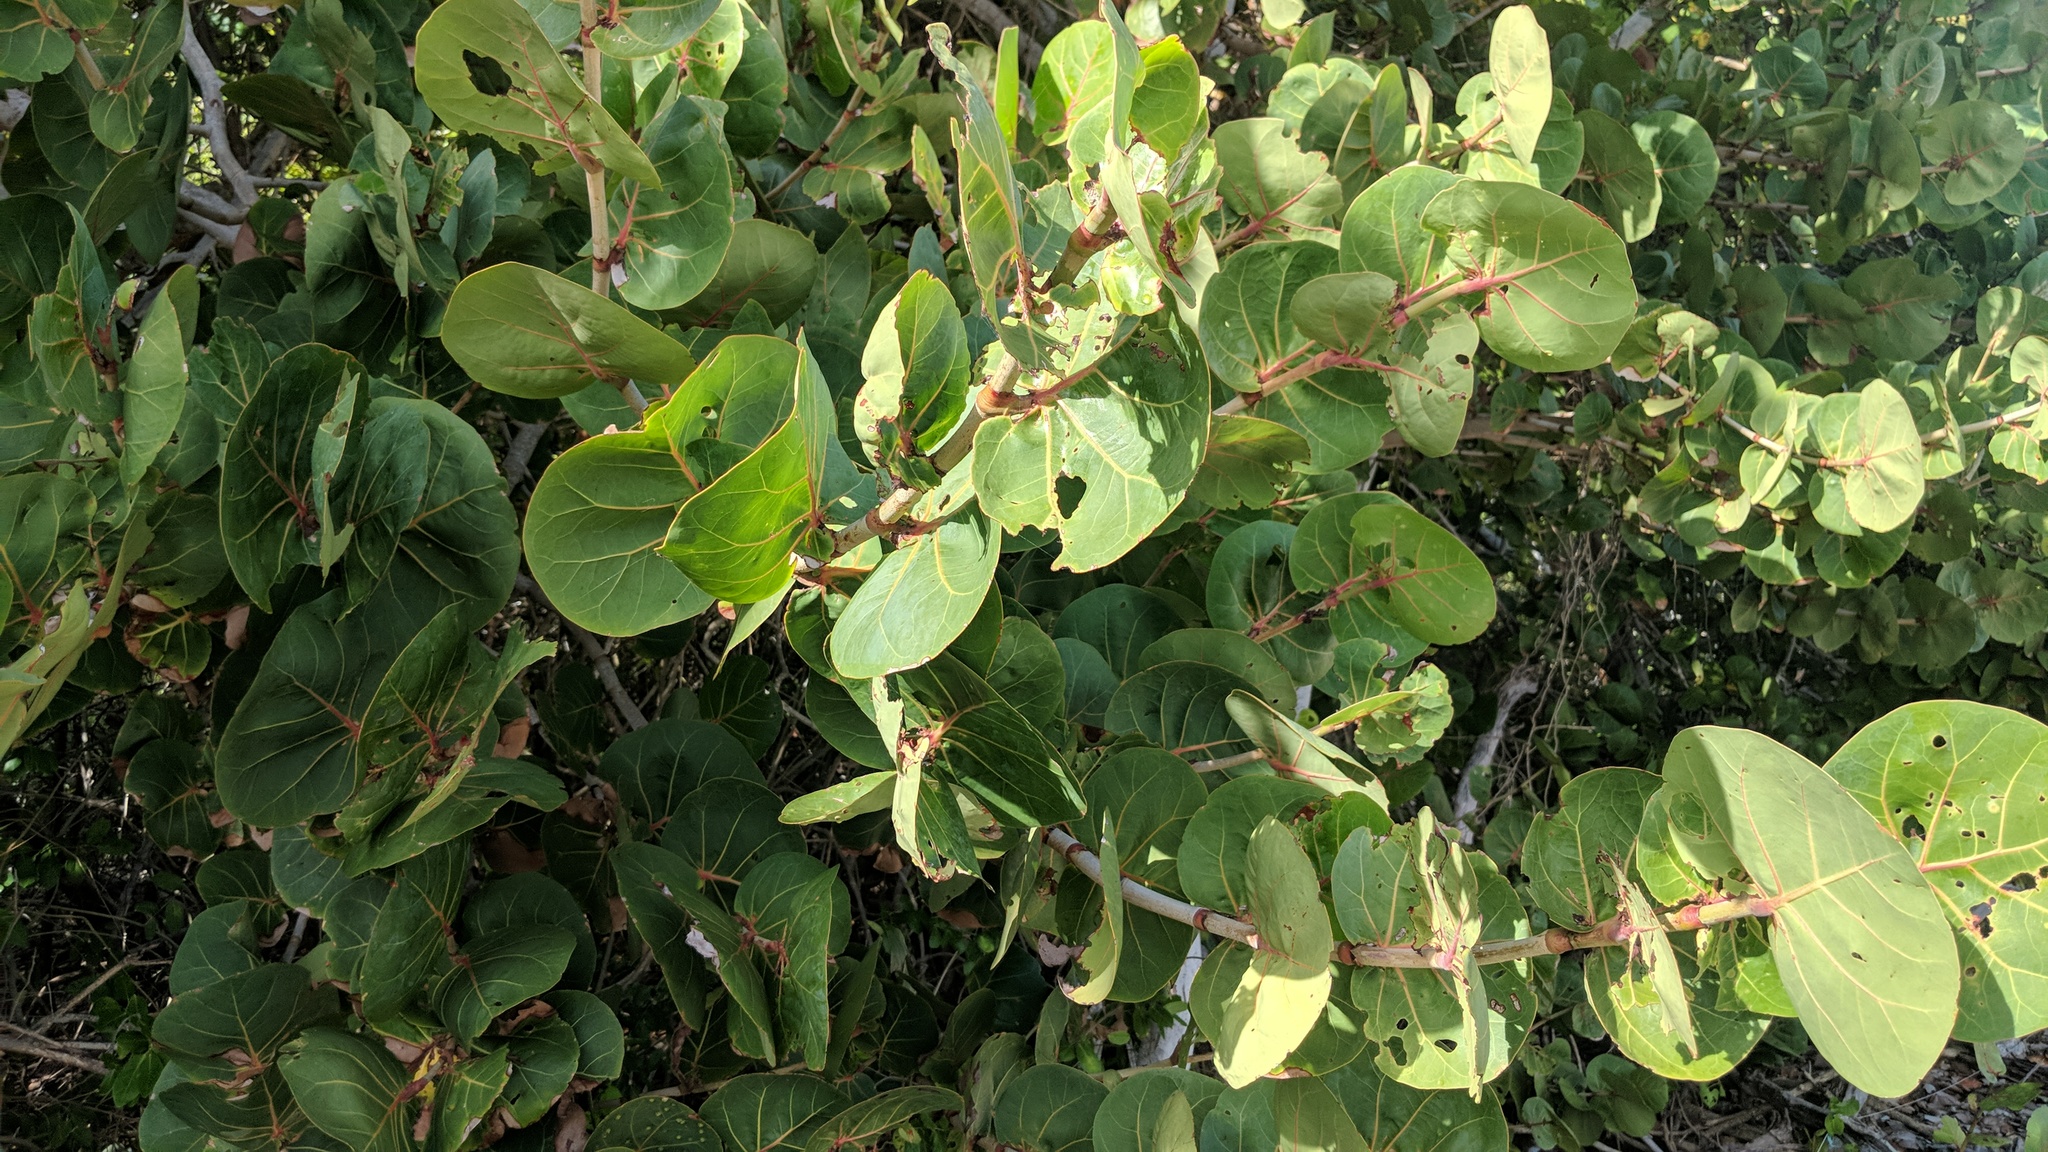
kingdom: Plantae
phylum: Tracheophyta
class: Magnoliopsida
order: Caryophyllales
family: Polygonaceae
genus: Coccoloba
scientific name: Coccoloba uvifera
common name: Seagrape
